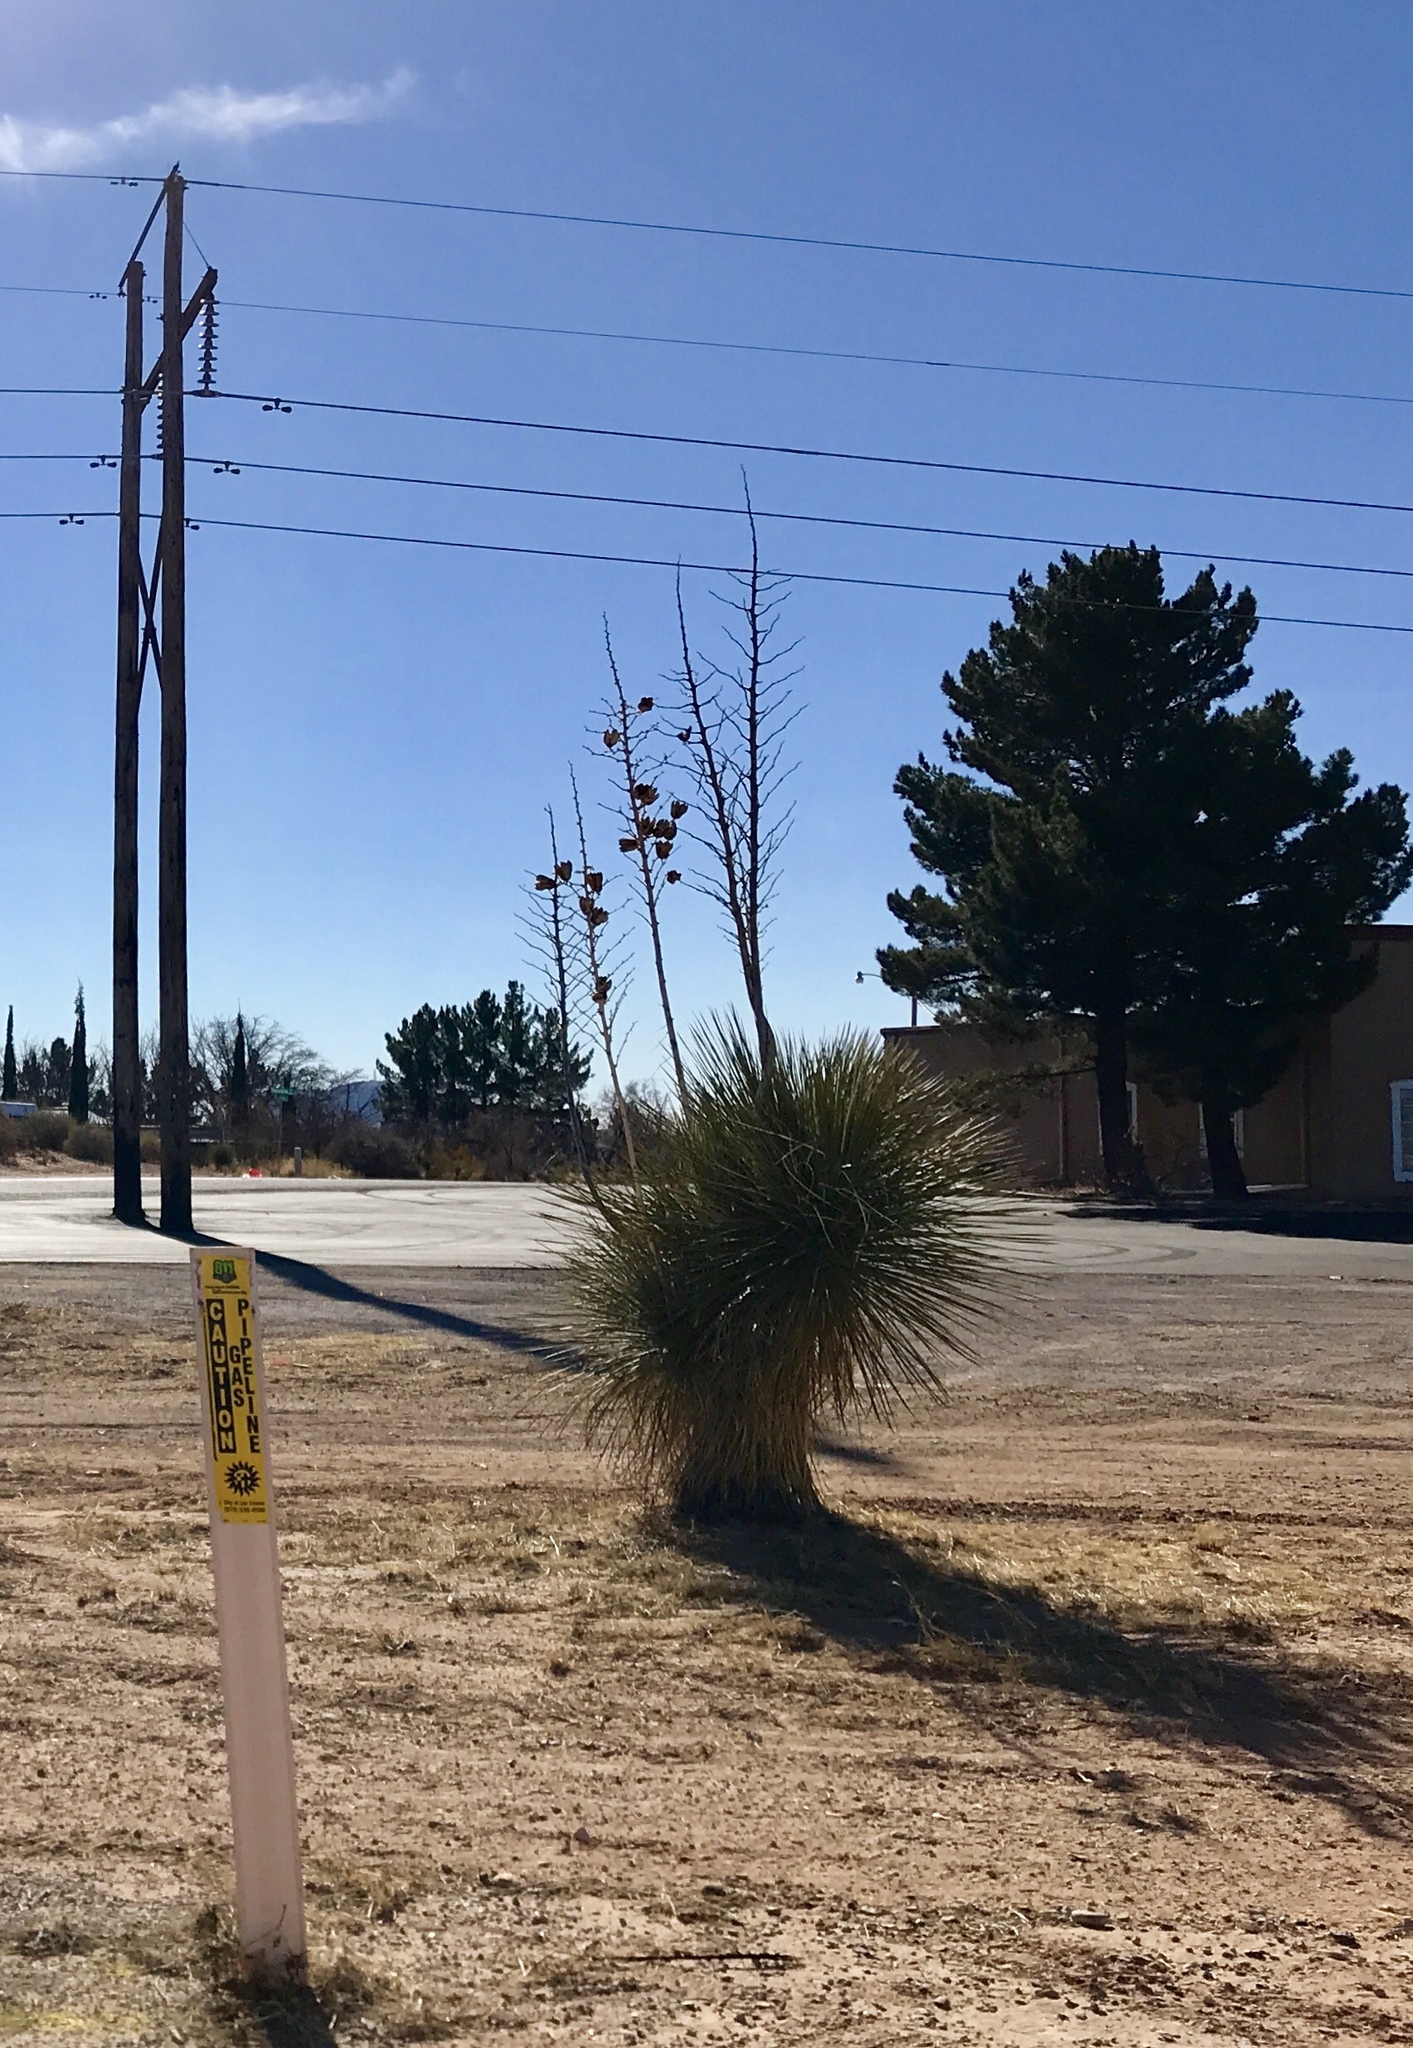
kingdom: Plantae
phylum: Tracheophyta
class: Liliopsida
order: Asparagales
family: Asparagaceae
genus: Yucca
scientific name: Yucca elata
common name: Palmella
